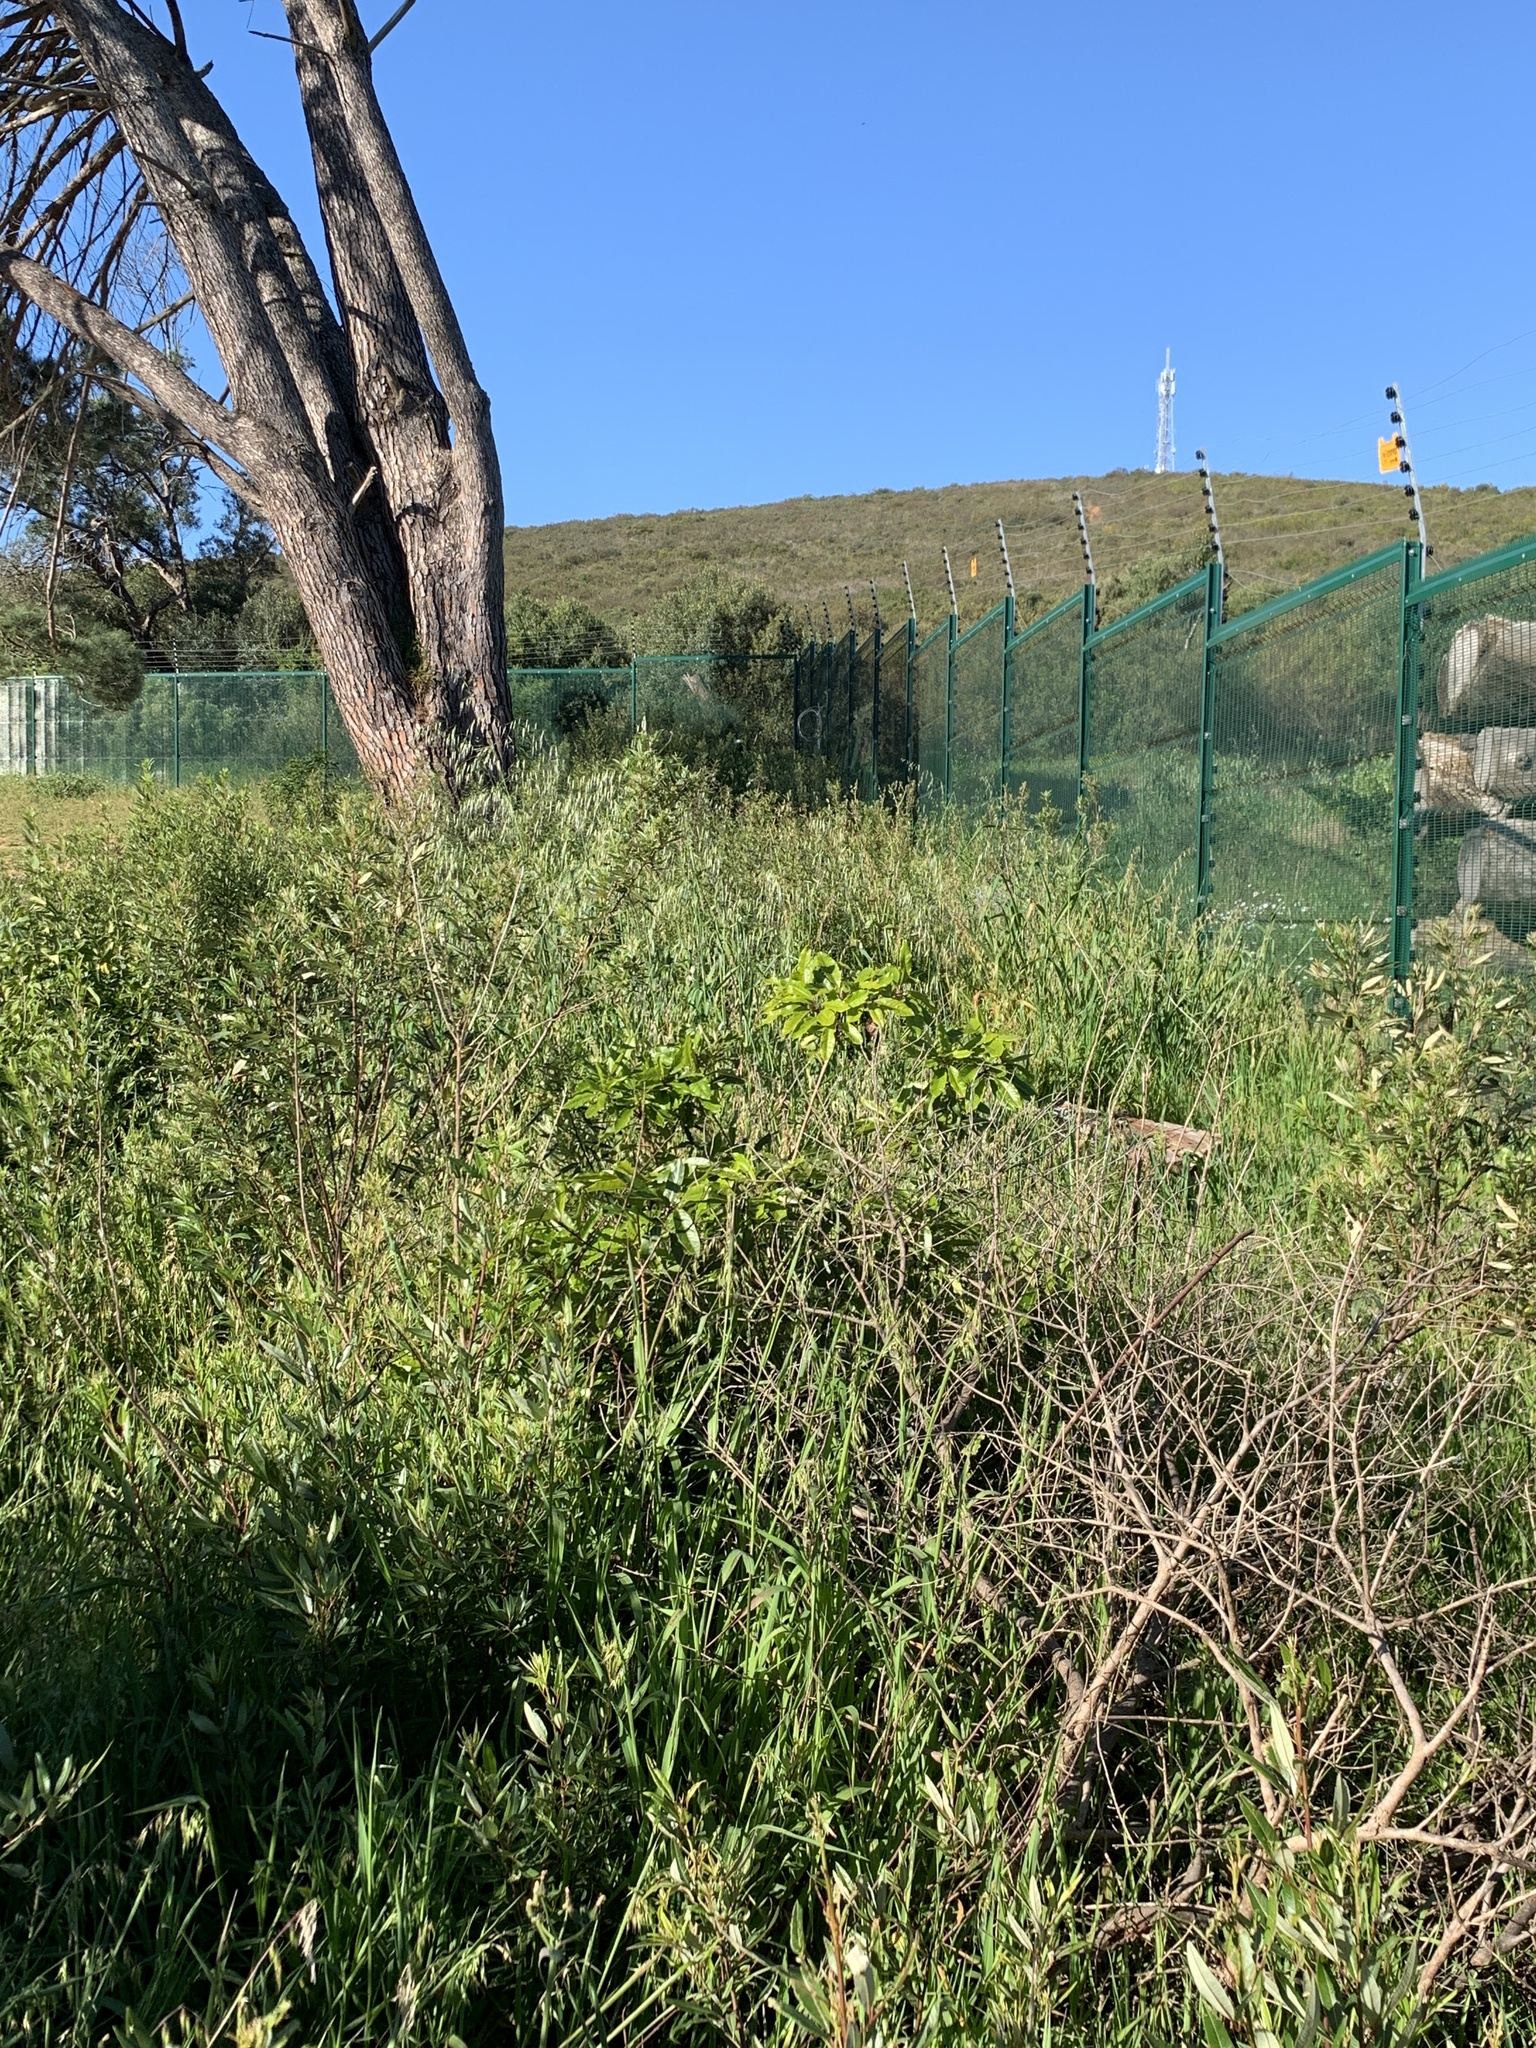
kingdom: Plantae
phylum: Tracheophyta
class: Magnoliopsida
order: Apiales
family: Pittosporaceae
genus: Pittosporum
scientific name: Pittosporum undulatum
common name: Australian cheesewood
